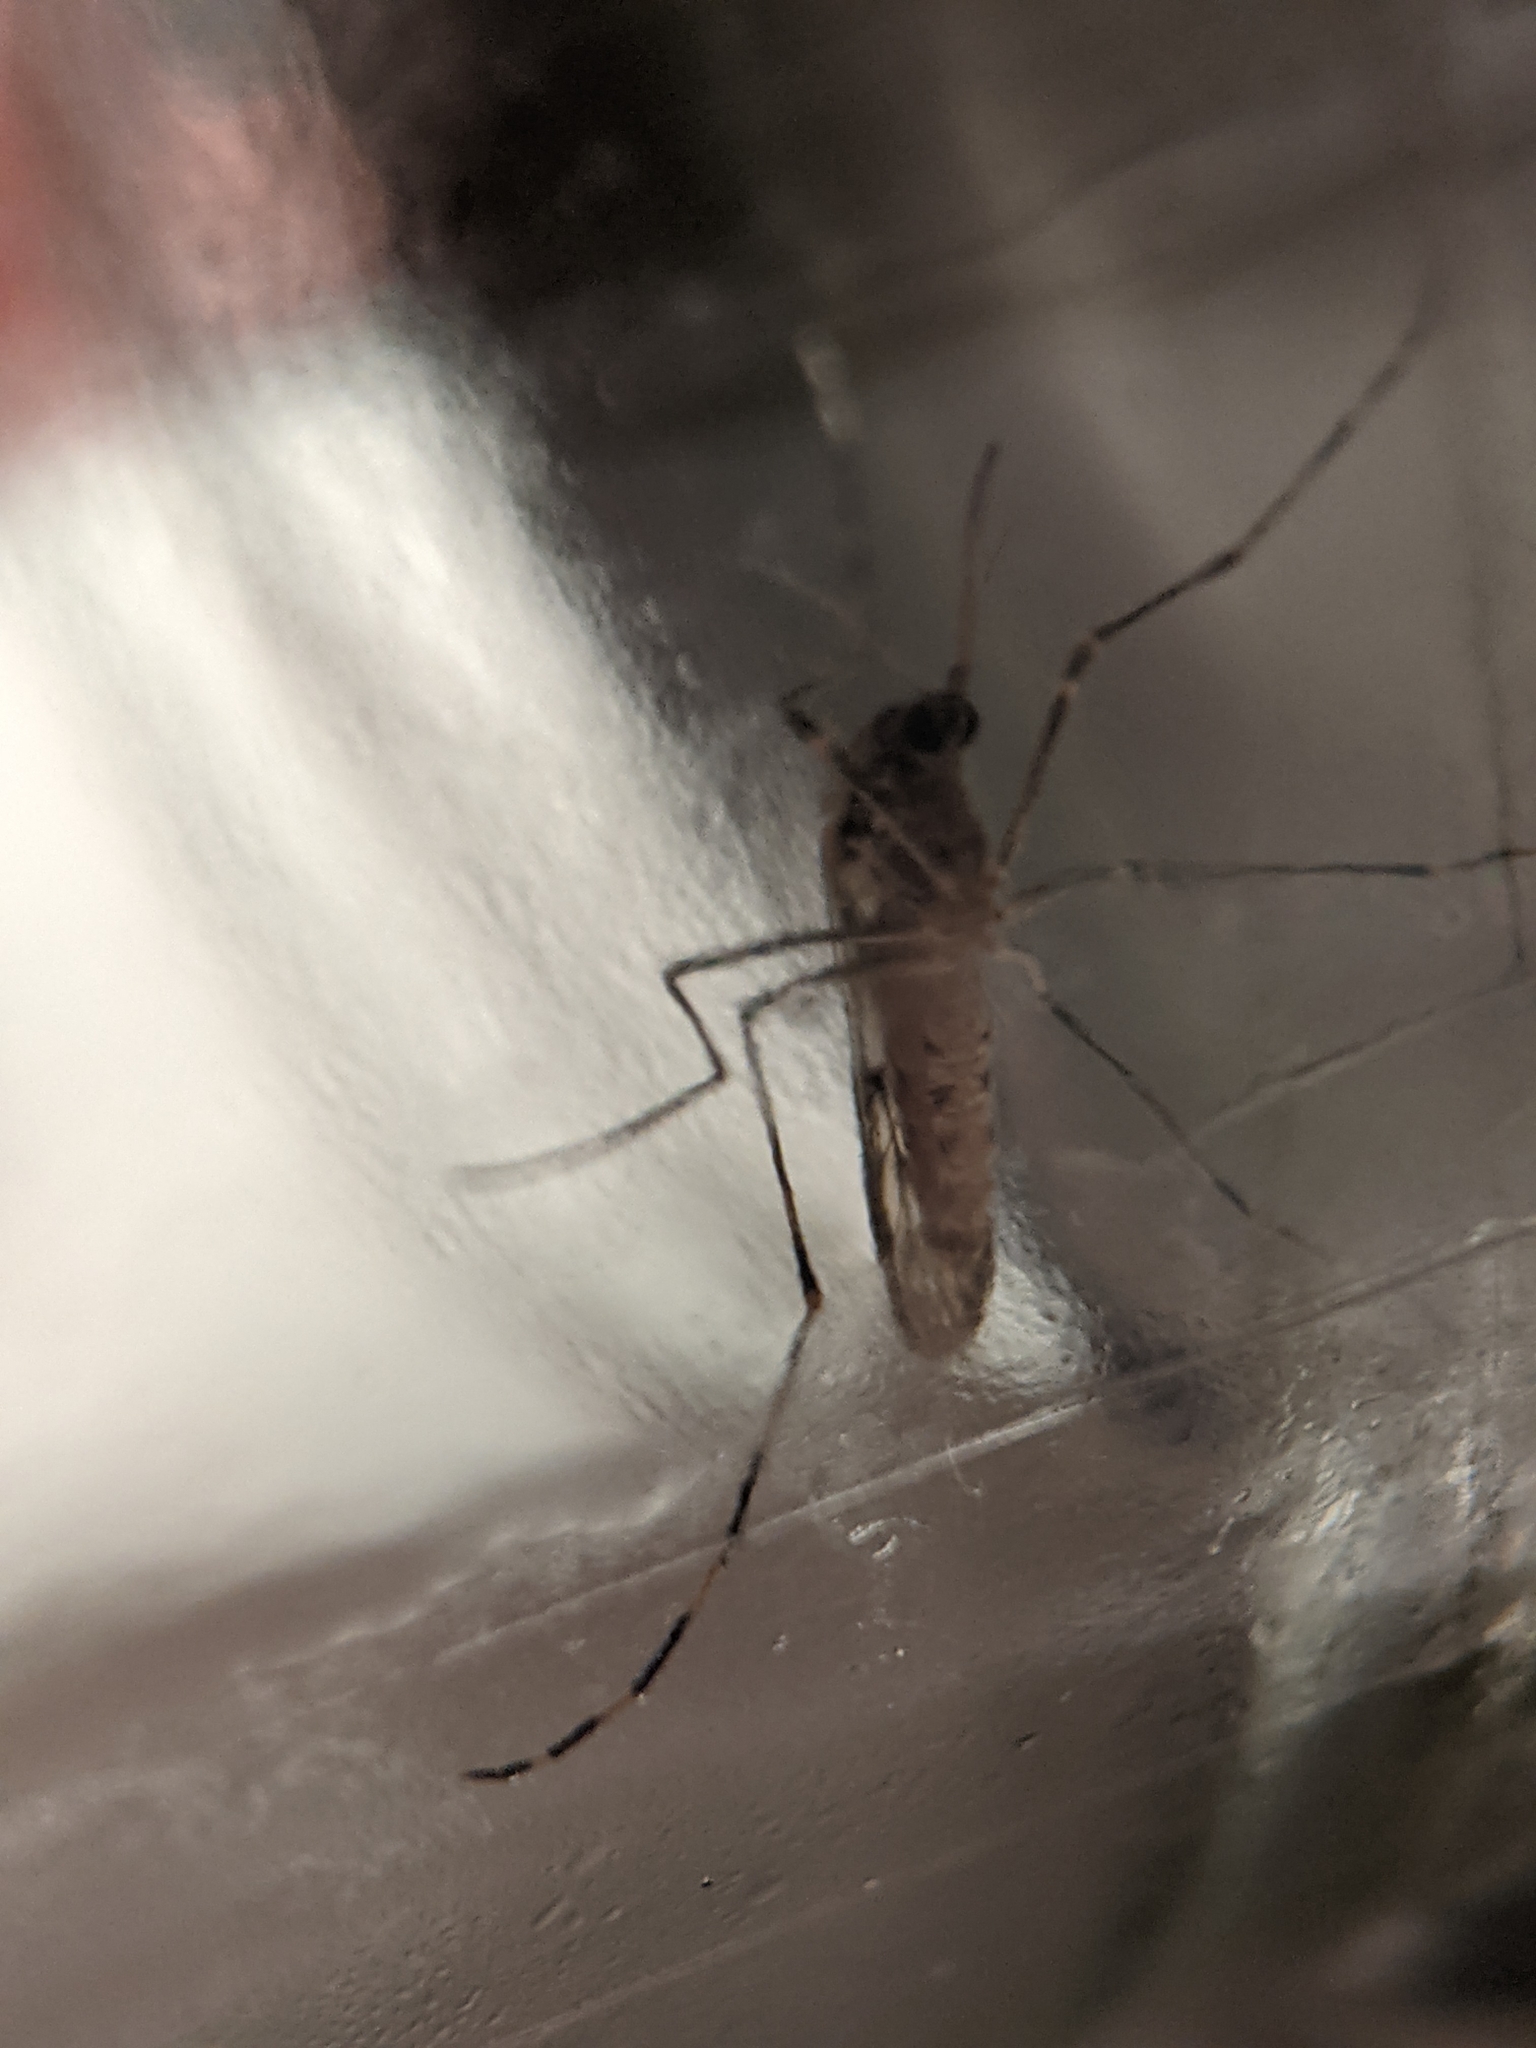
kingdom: Animalia
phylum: Arthropoda
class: Insecta
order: Diptera
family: Culicidae
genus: Culiseta
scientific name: Culiseta annulata
